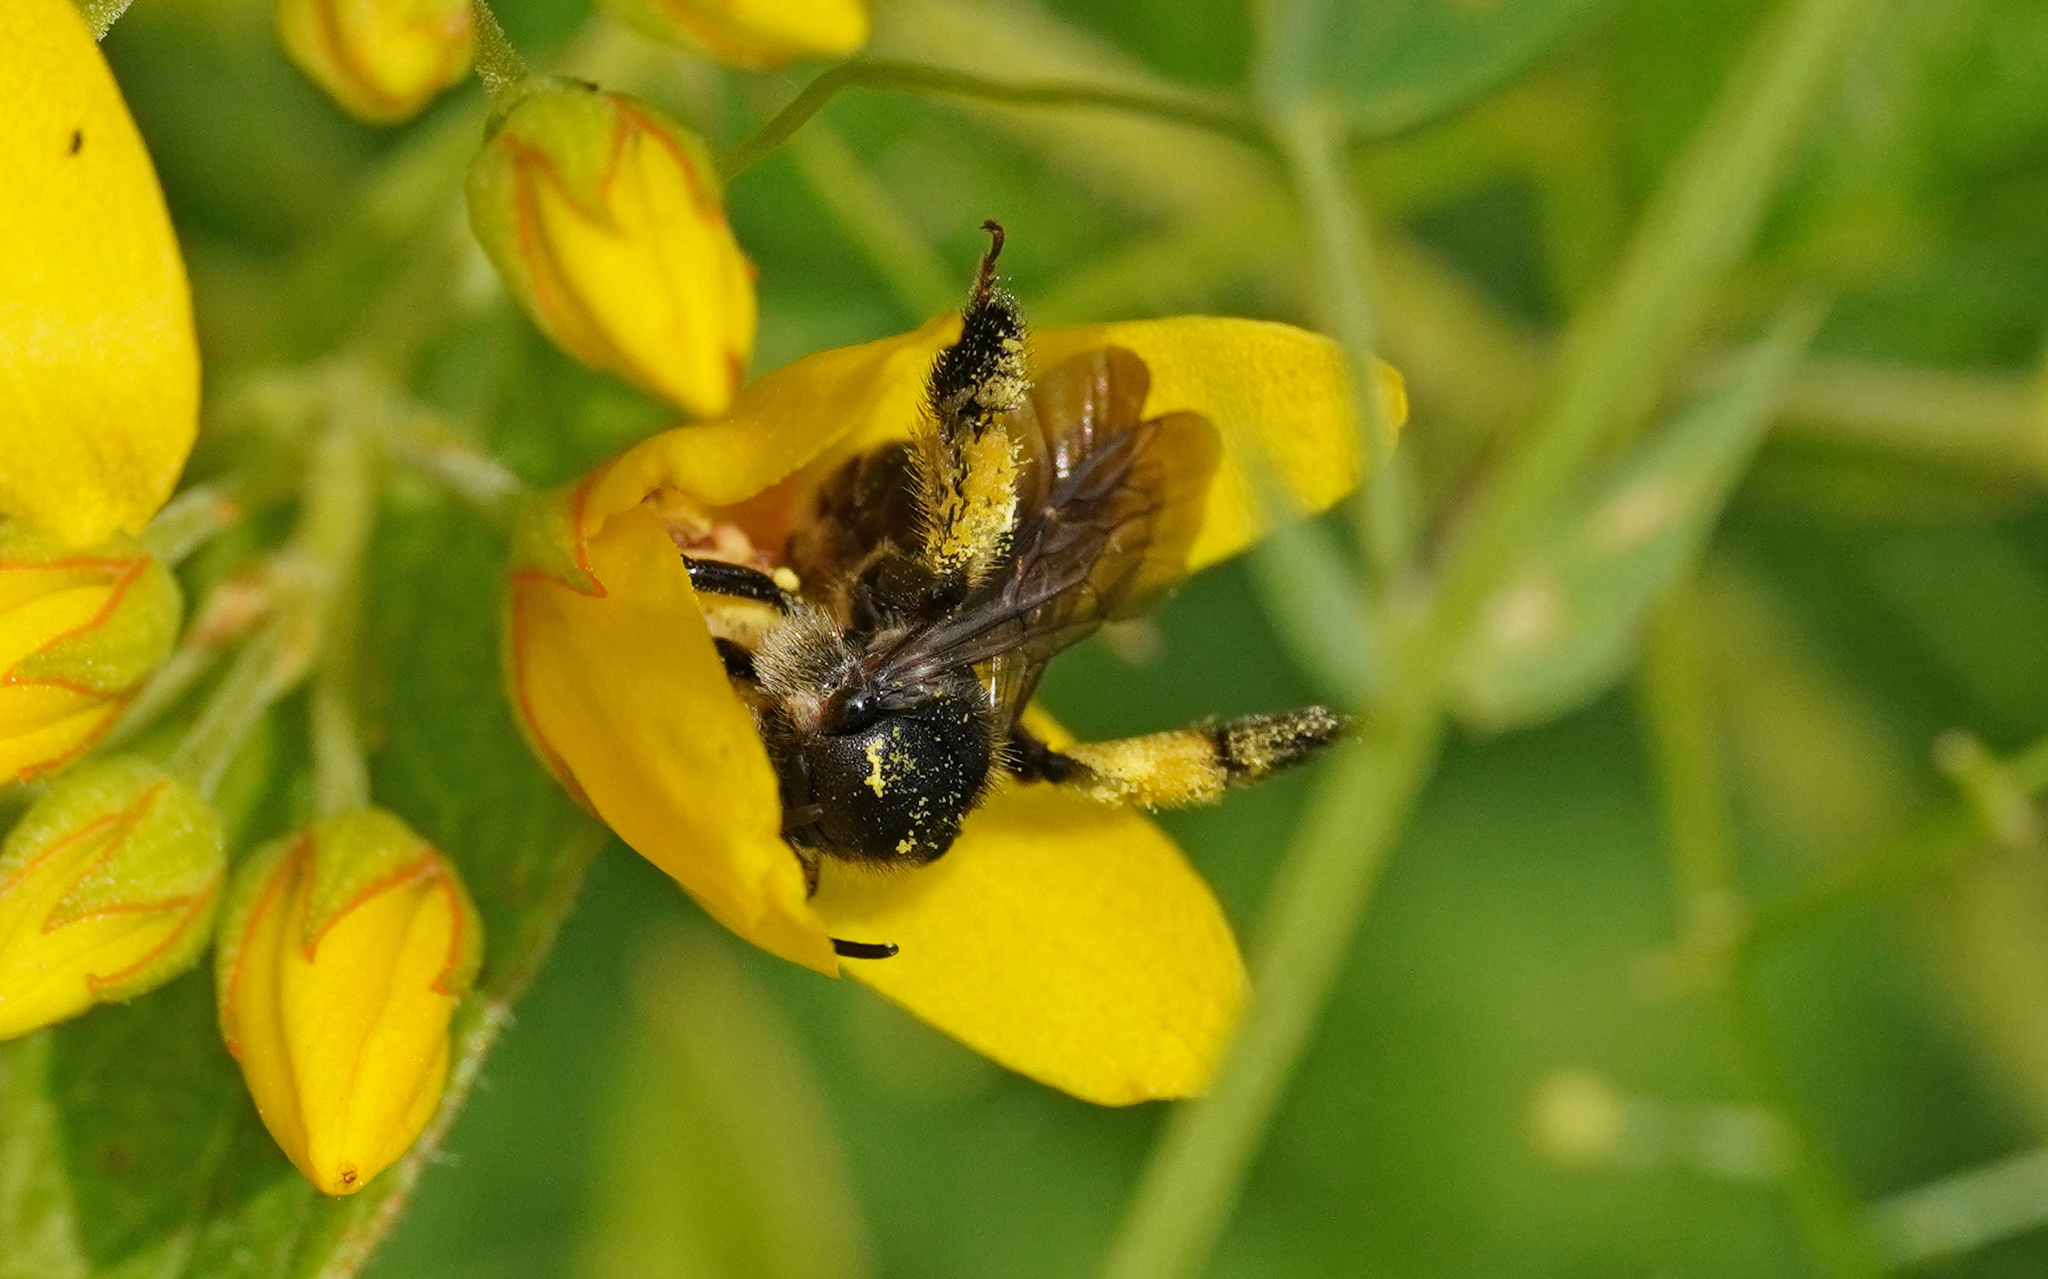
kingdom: Animalia
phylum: Arthropoda
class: Insecta
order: Hymenoptera
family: Melittidae
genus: Macropis
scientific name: Macropis europaea
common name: Yellow loosestrife bee
